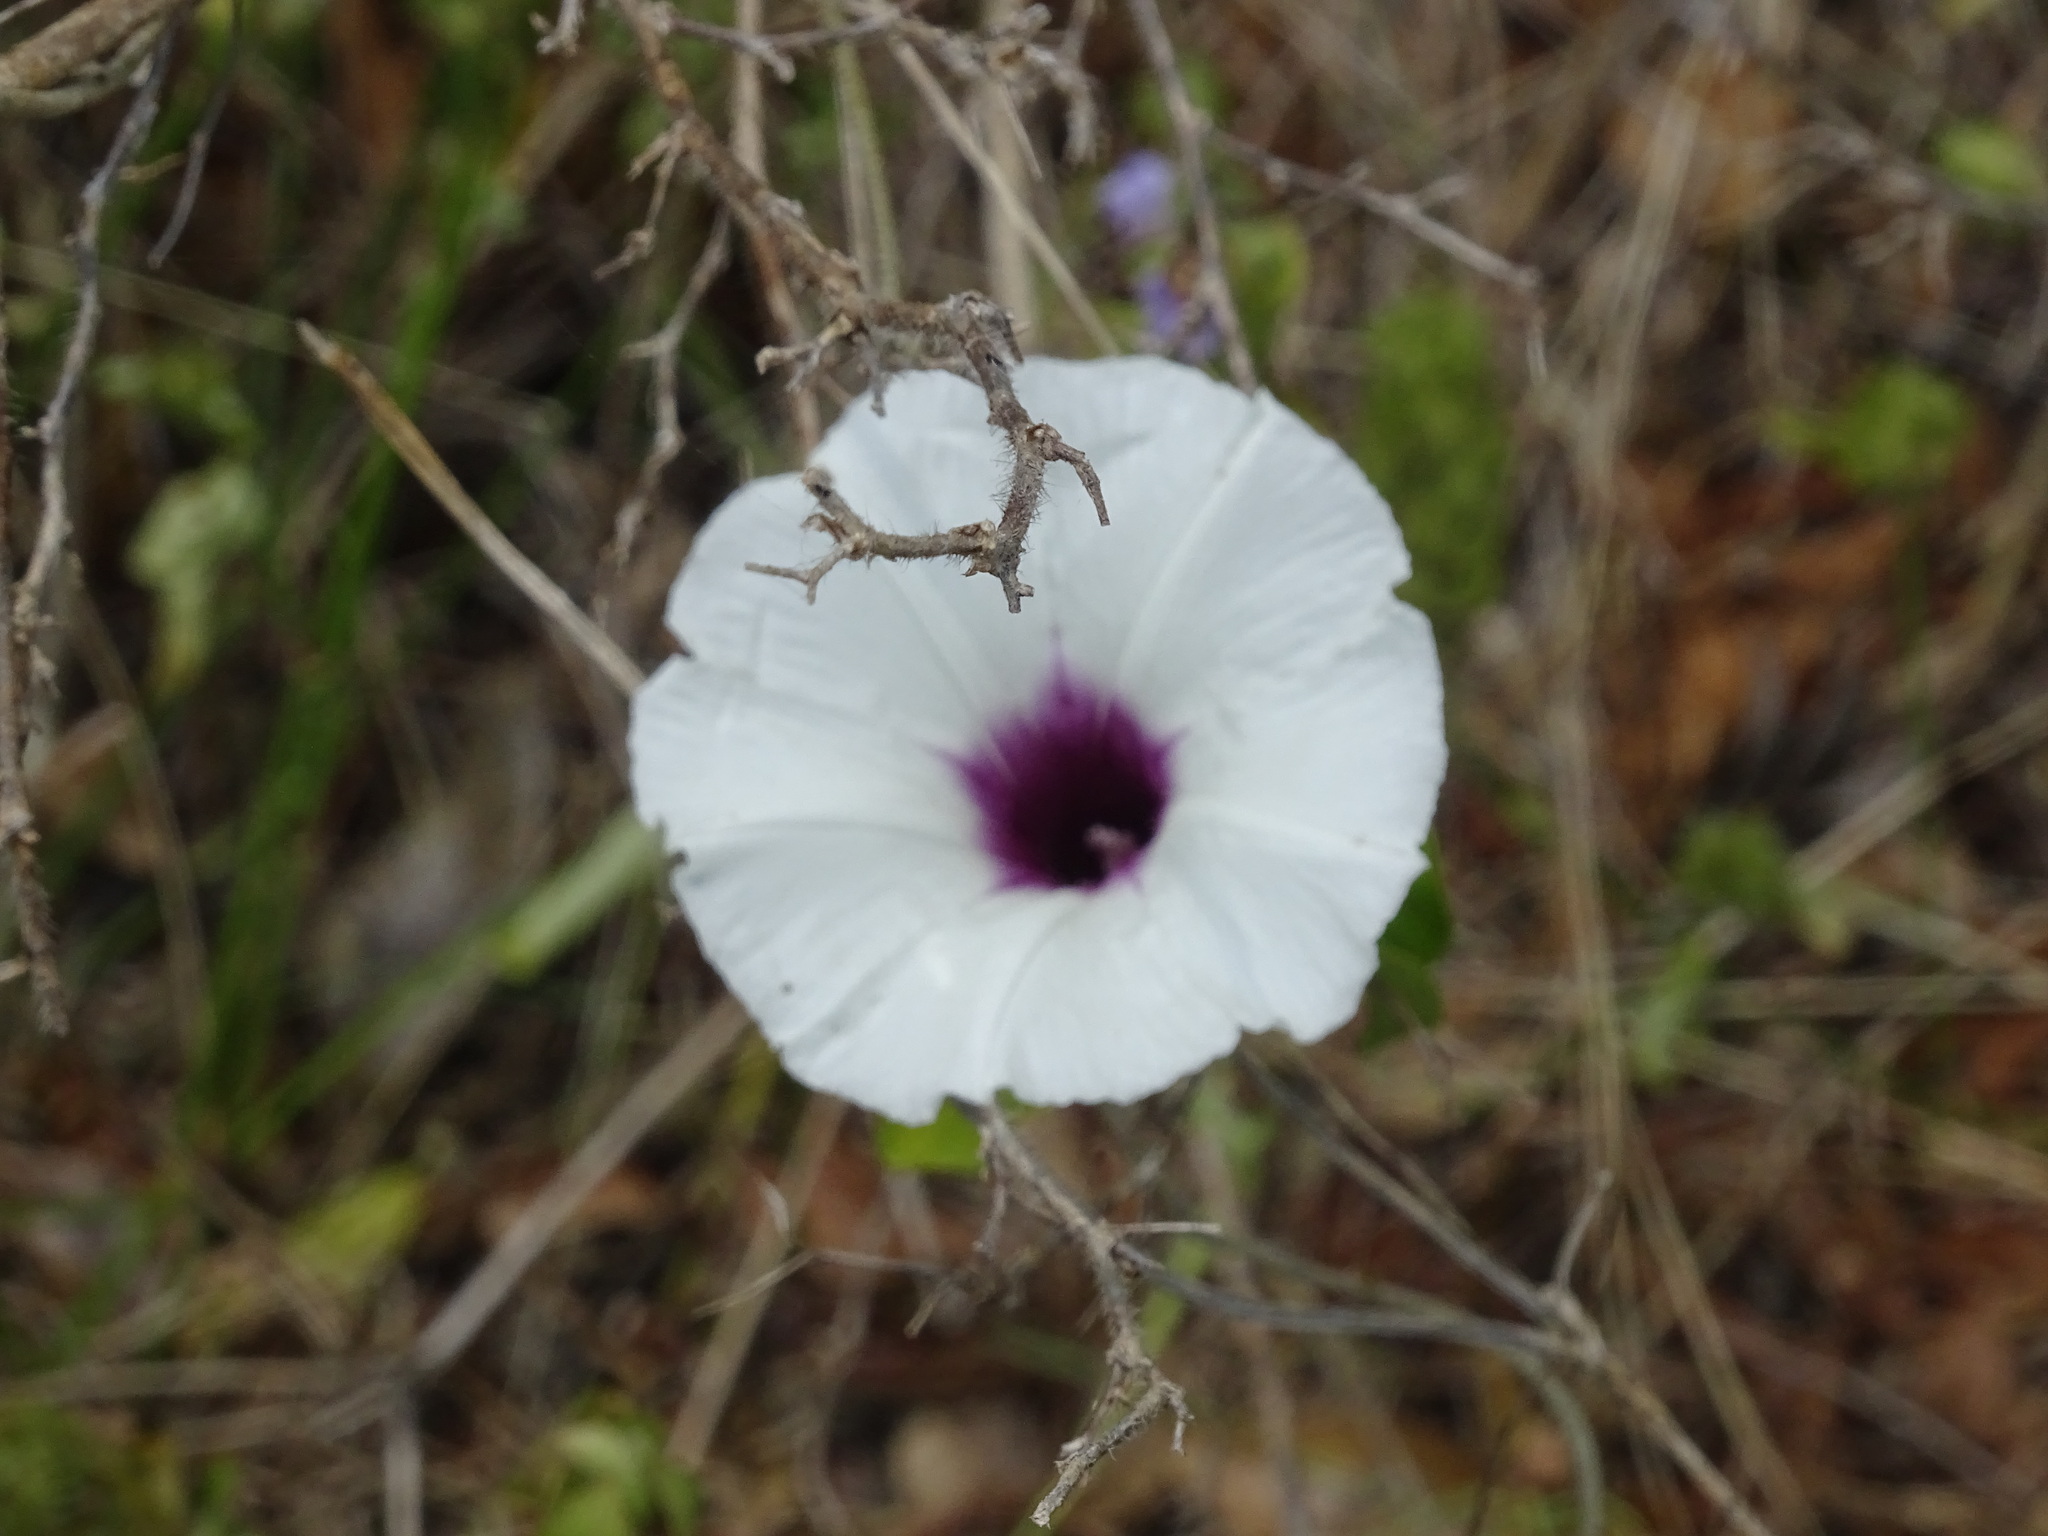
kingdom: Plantae
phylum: Tracheophyta
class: Magnoliopsida
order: Solanales
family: Convolvulaceae
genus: Ipomoea
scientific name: Ipomoea anisomeres
